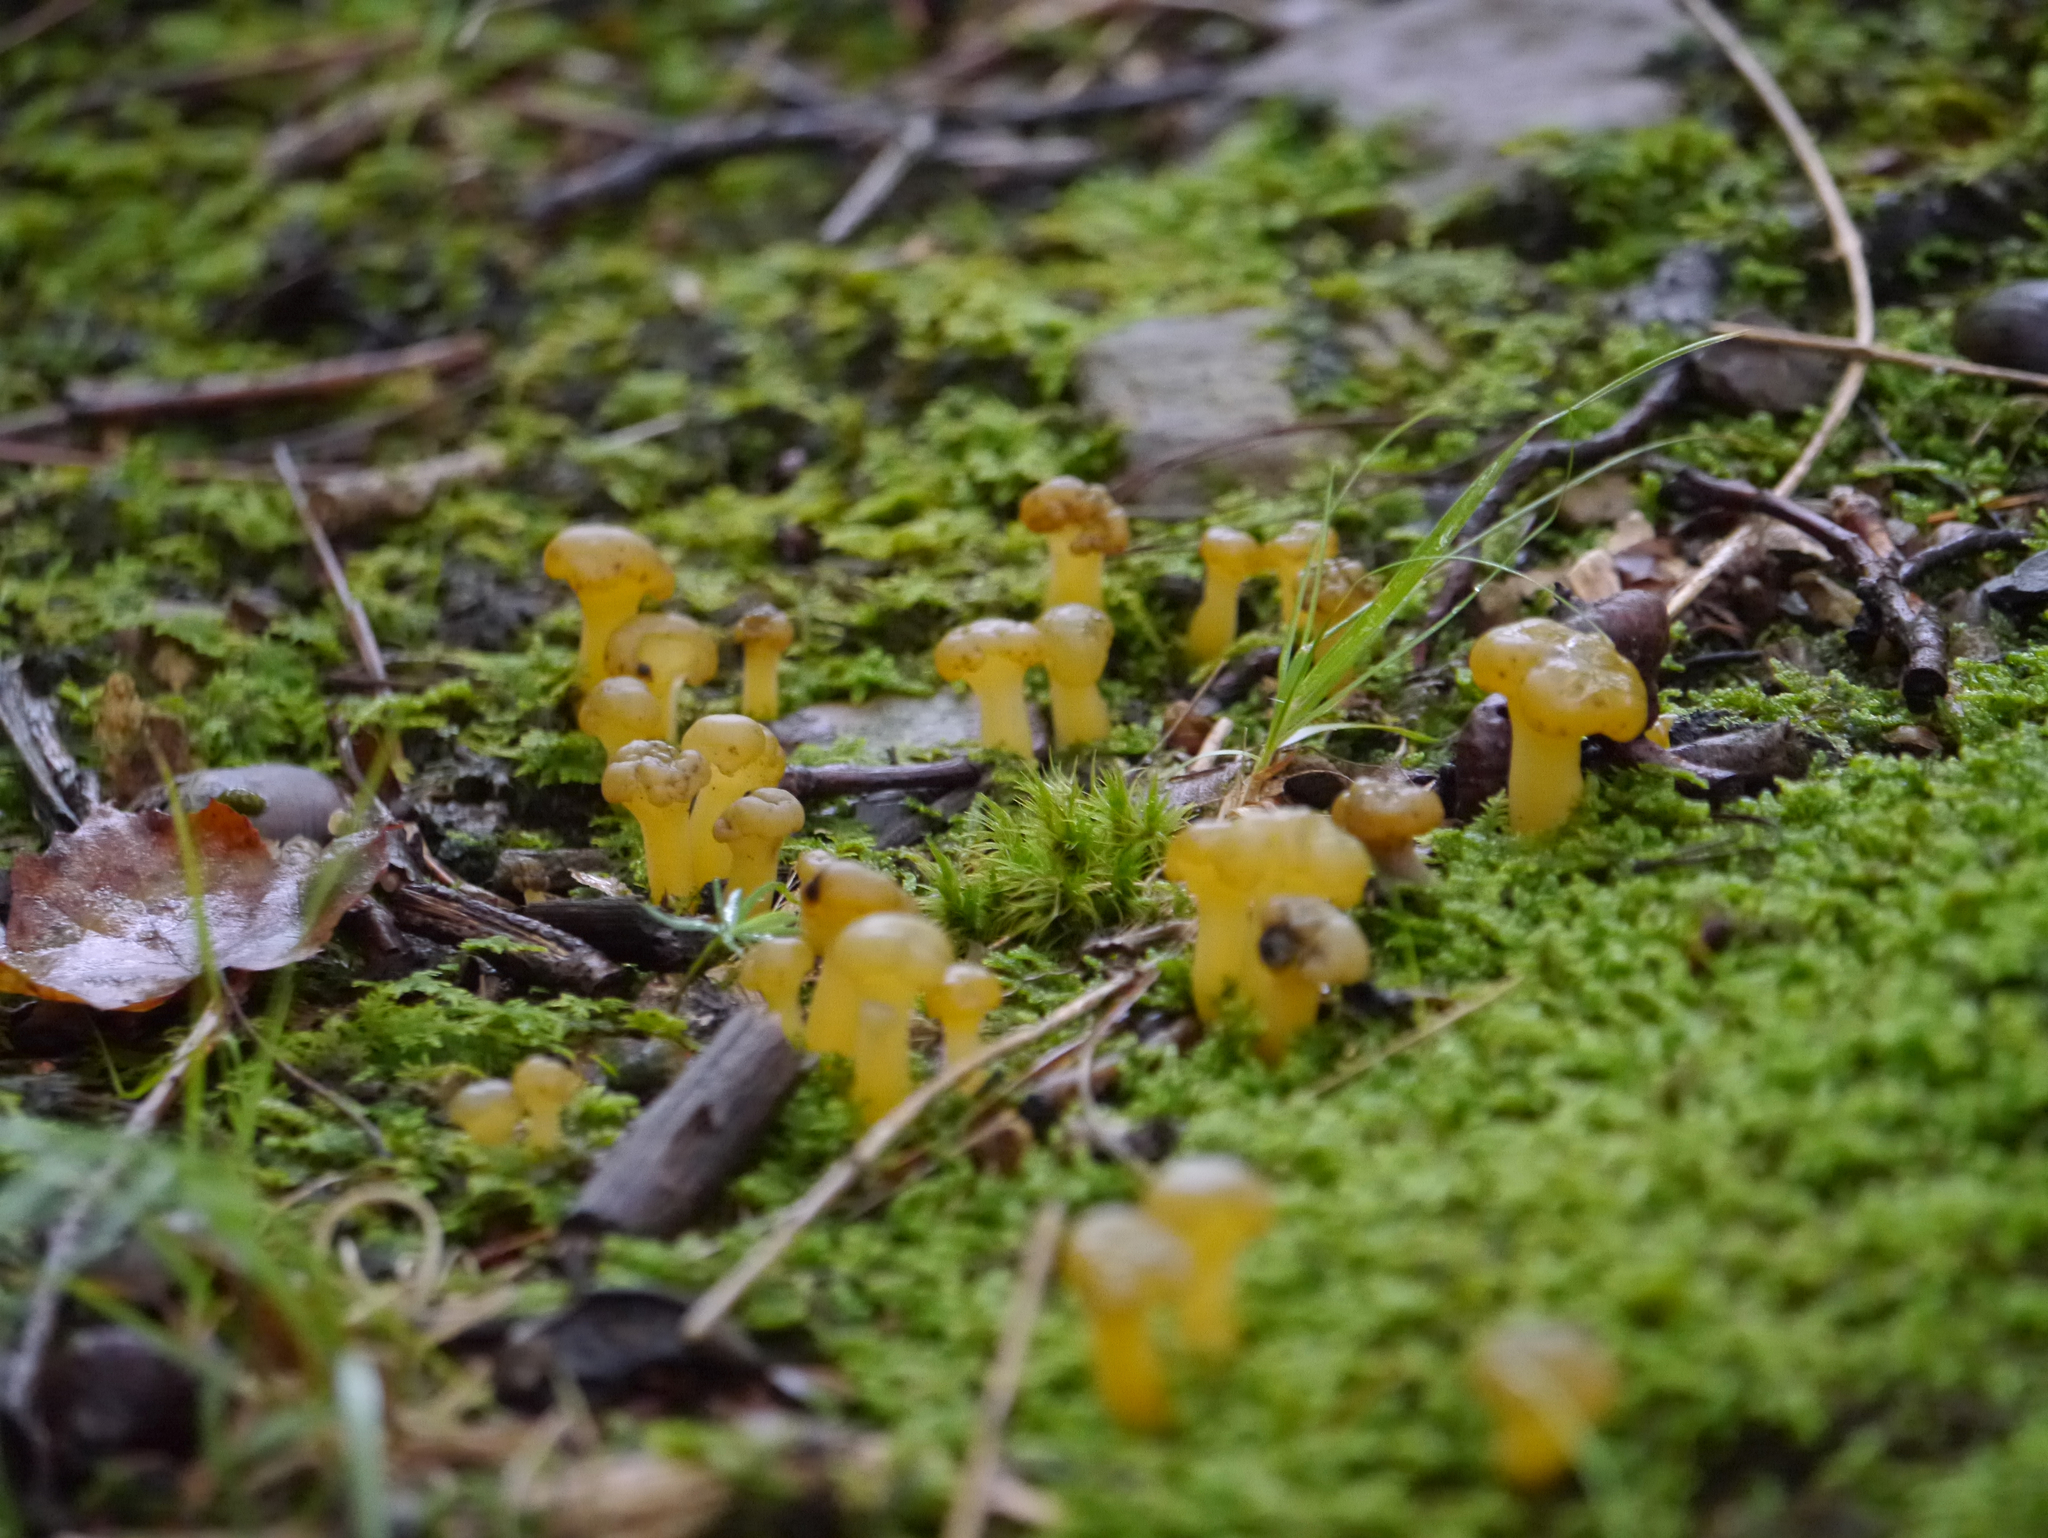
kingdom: Fungi
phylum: Ascomycota
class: Leotiomycetes
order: Leotiales
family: Leotiaceae
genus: Leotia
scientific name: Leotia lubrica
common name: Jellybaby
